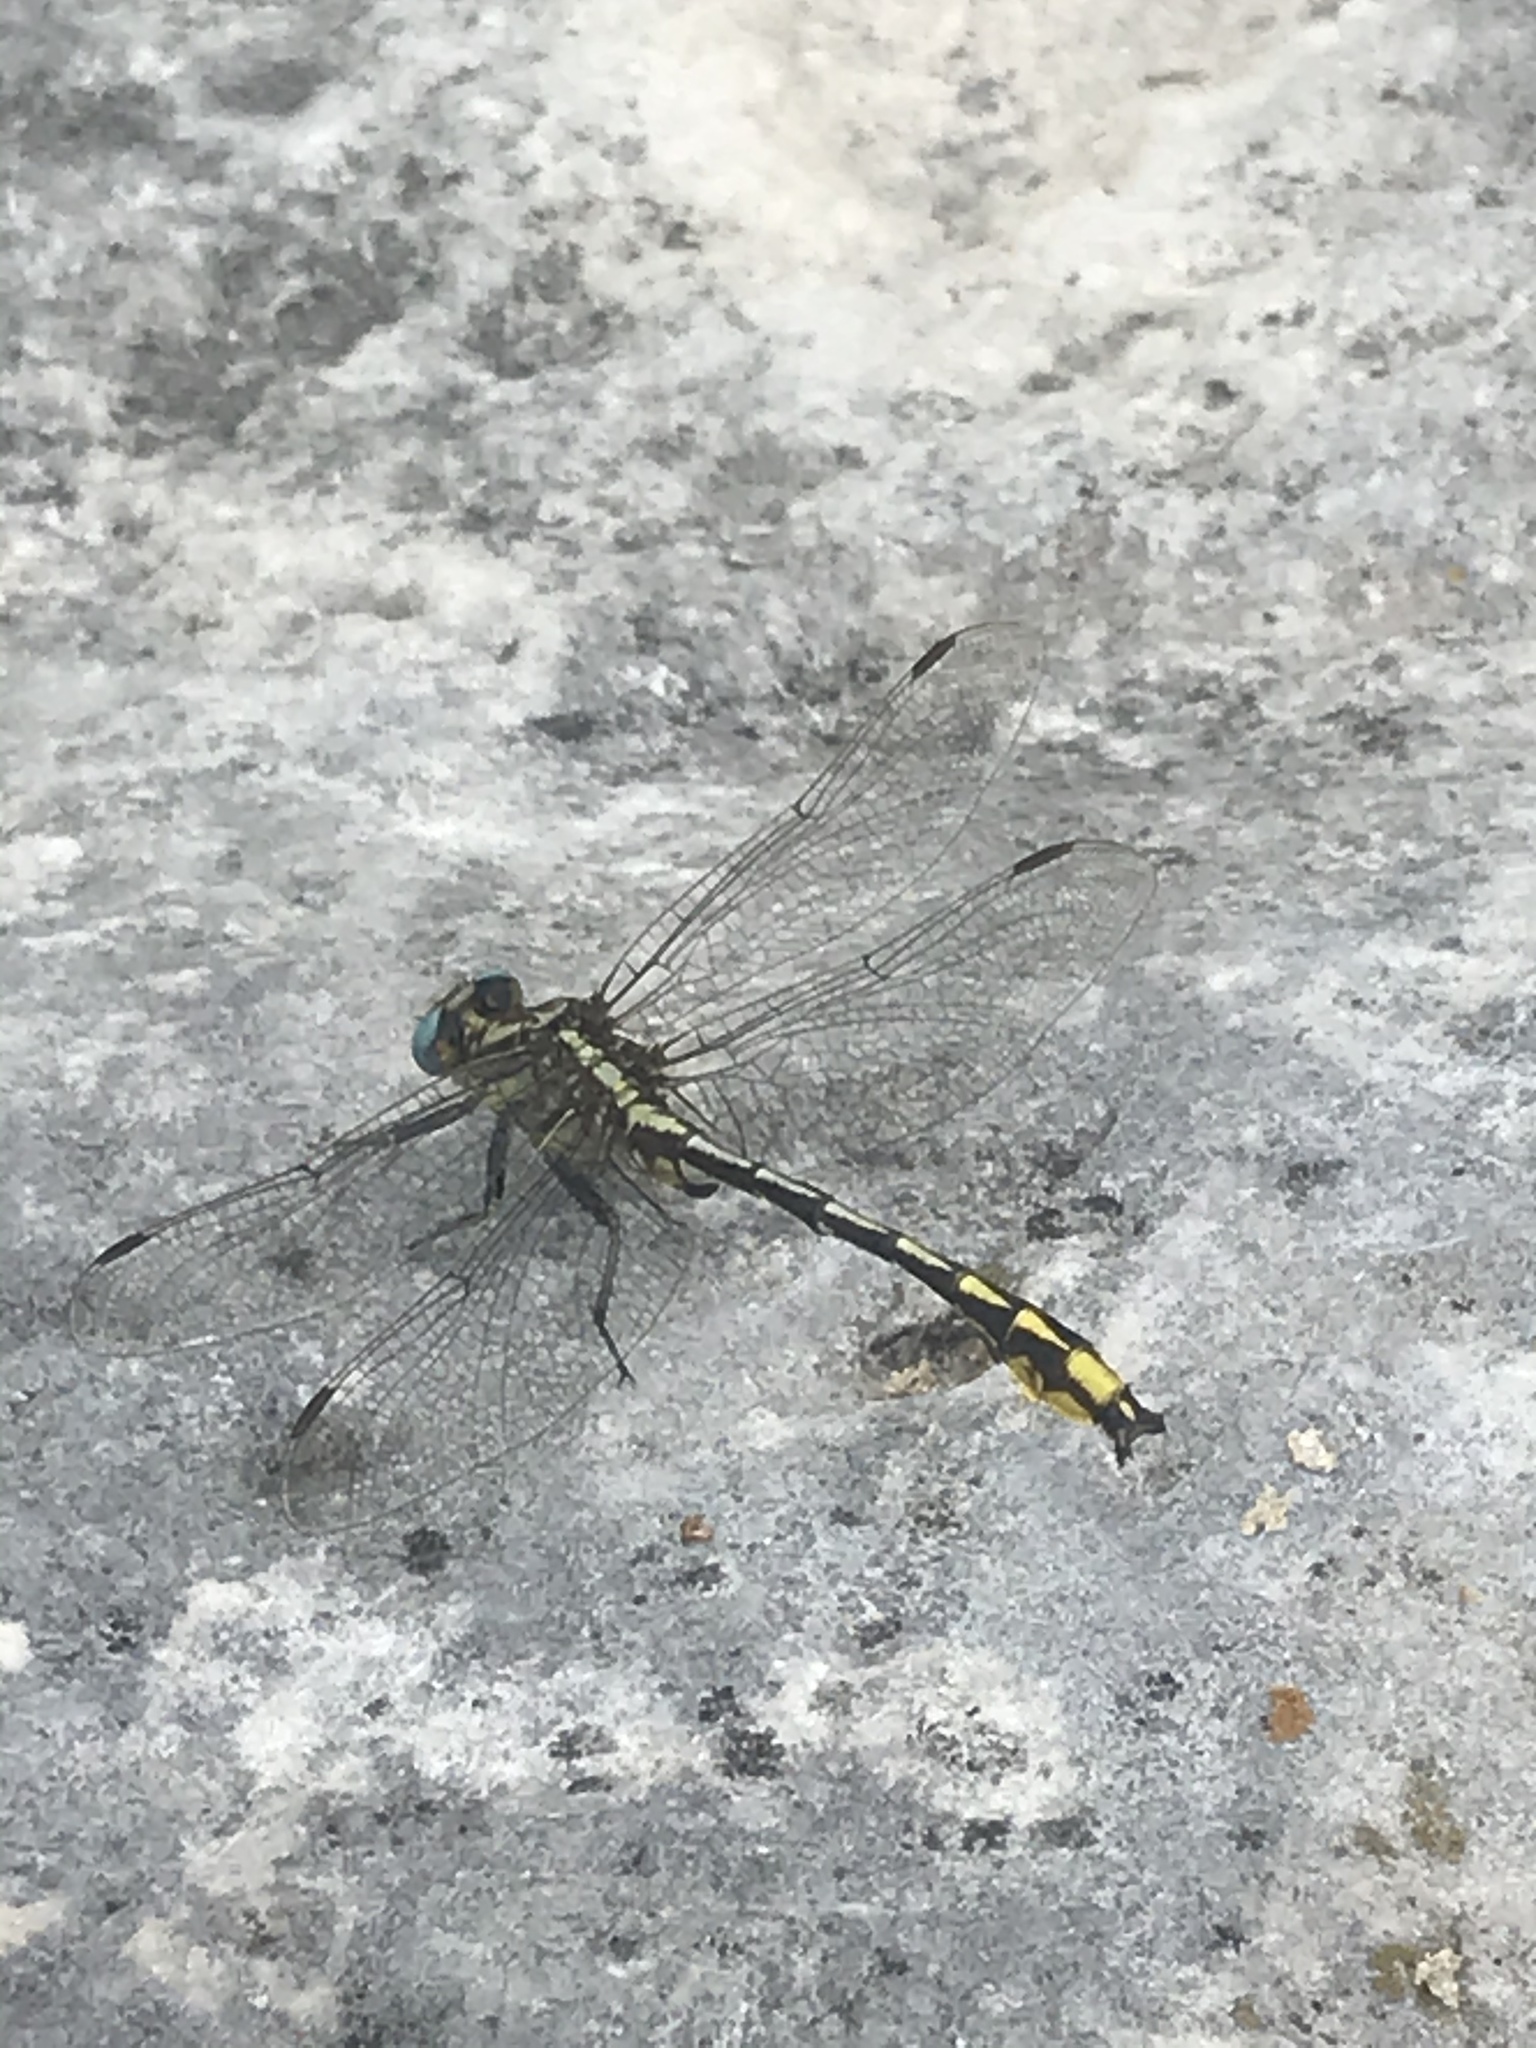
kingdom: Animalia
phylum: Arthropoda
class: Insecta
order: Odonata
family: Gomphidae
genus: Phanogomphus
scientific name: Phanogomphus graslinellus
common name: Pronghorn clubtail
